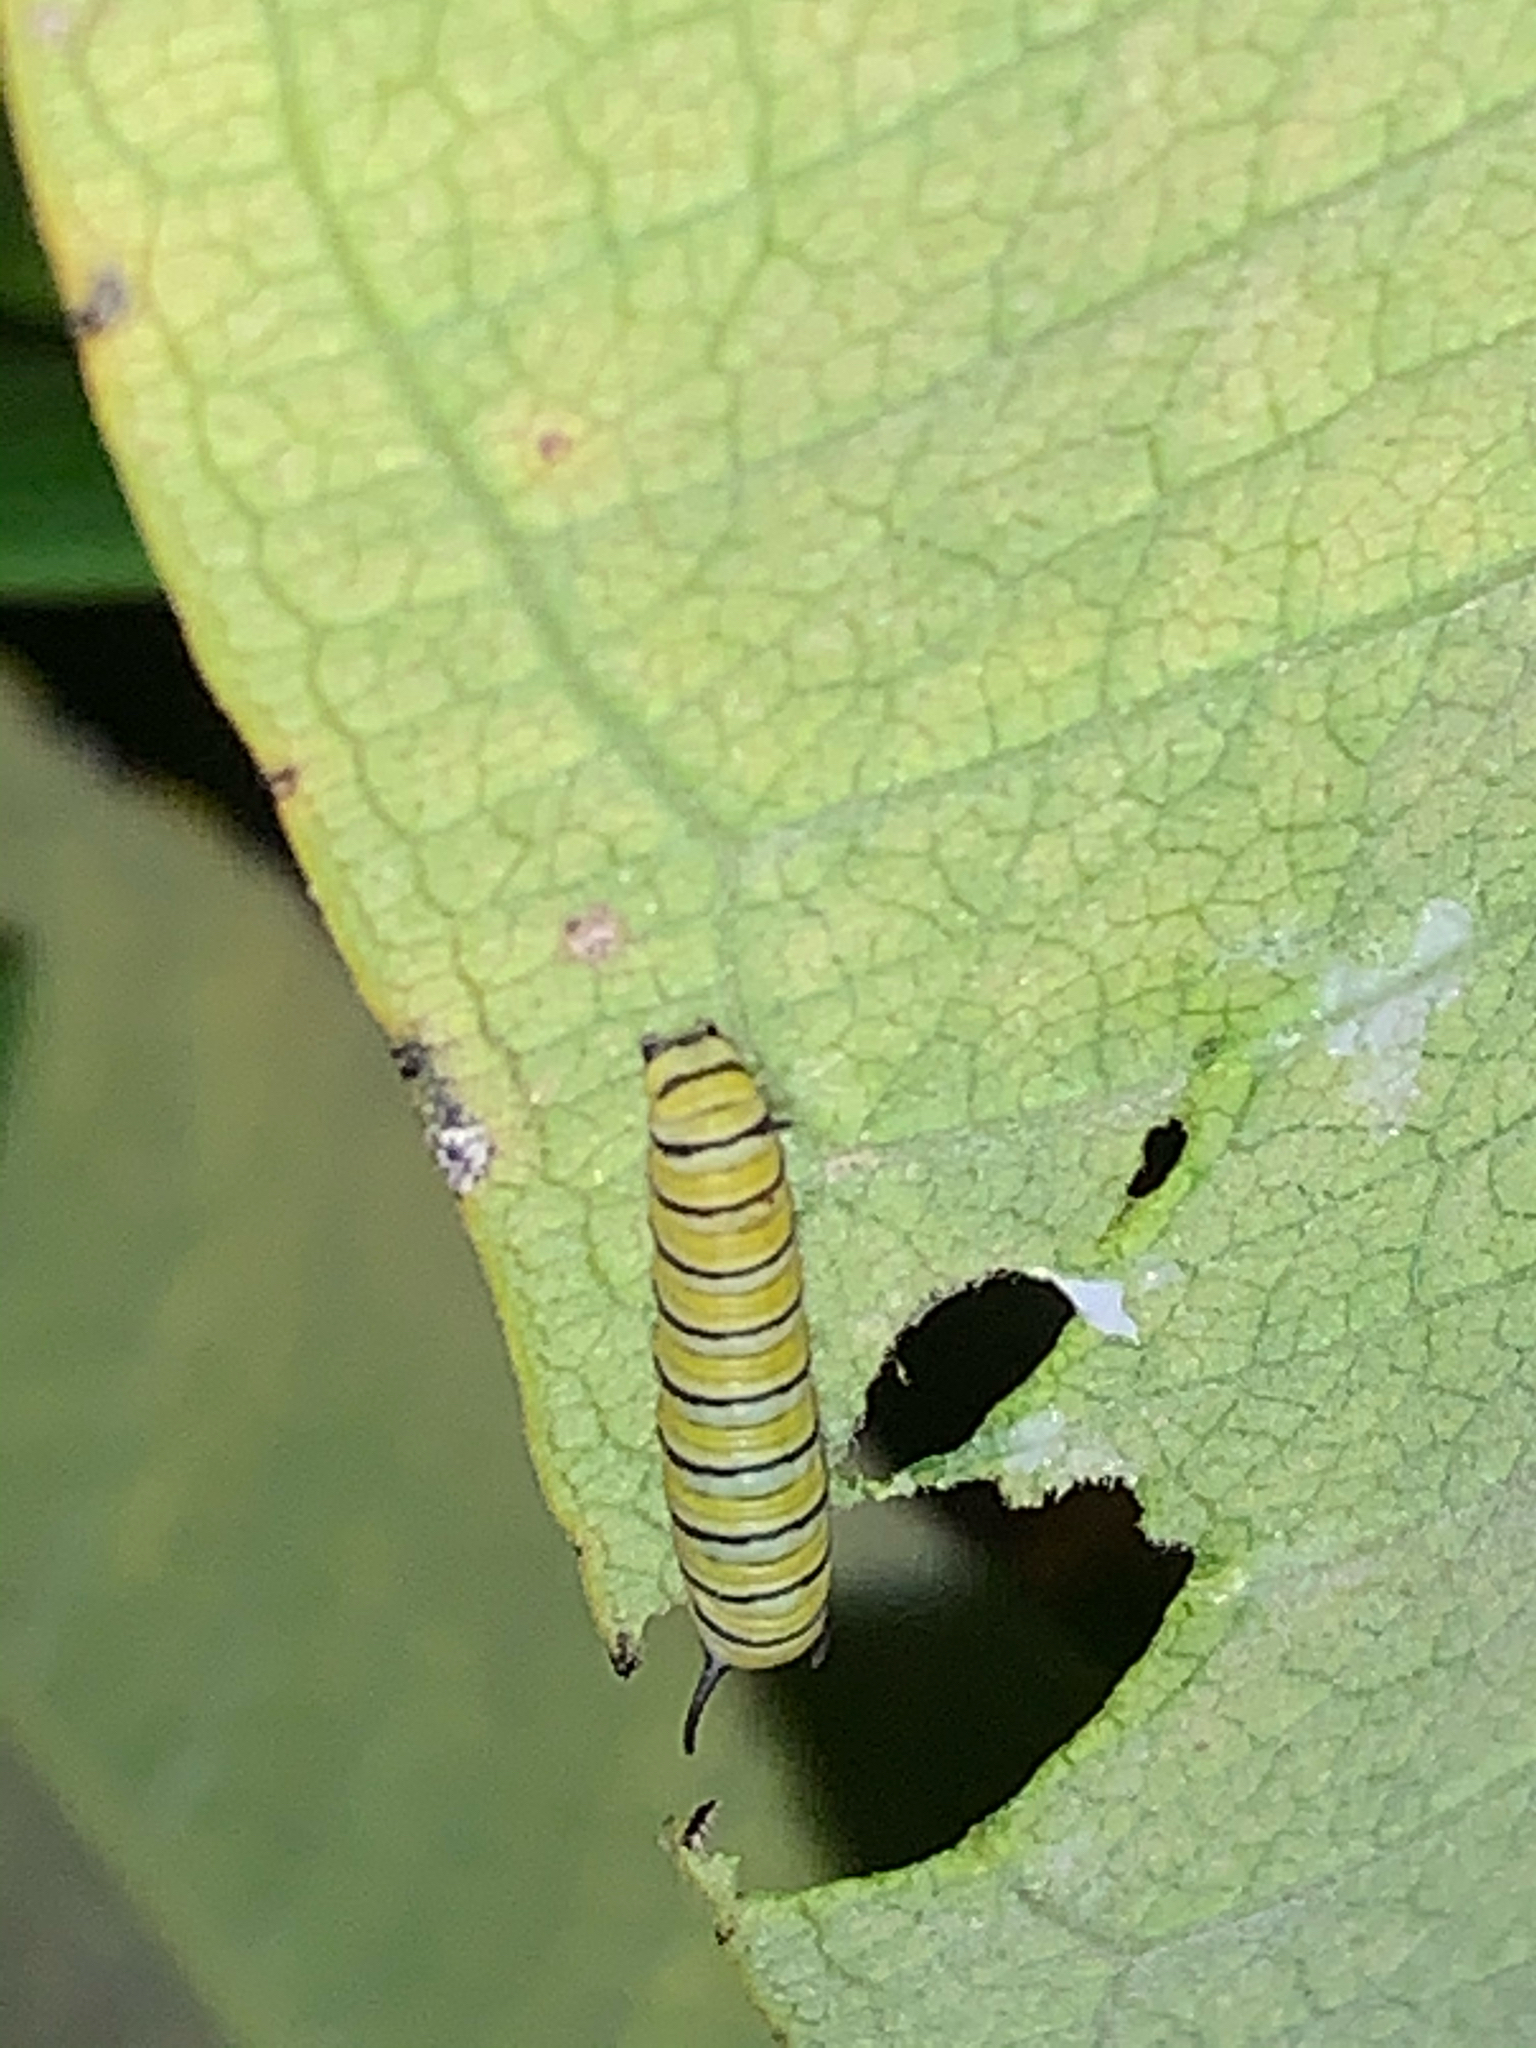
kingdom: Animalia
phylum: Arthropoda
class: Insecta
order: Lepidoptera
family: Nymphalidae
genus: Danaus
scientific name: Danaus plexippus
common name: Monarch
